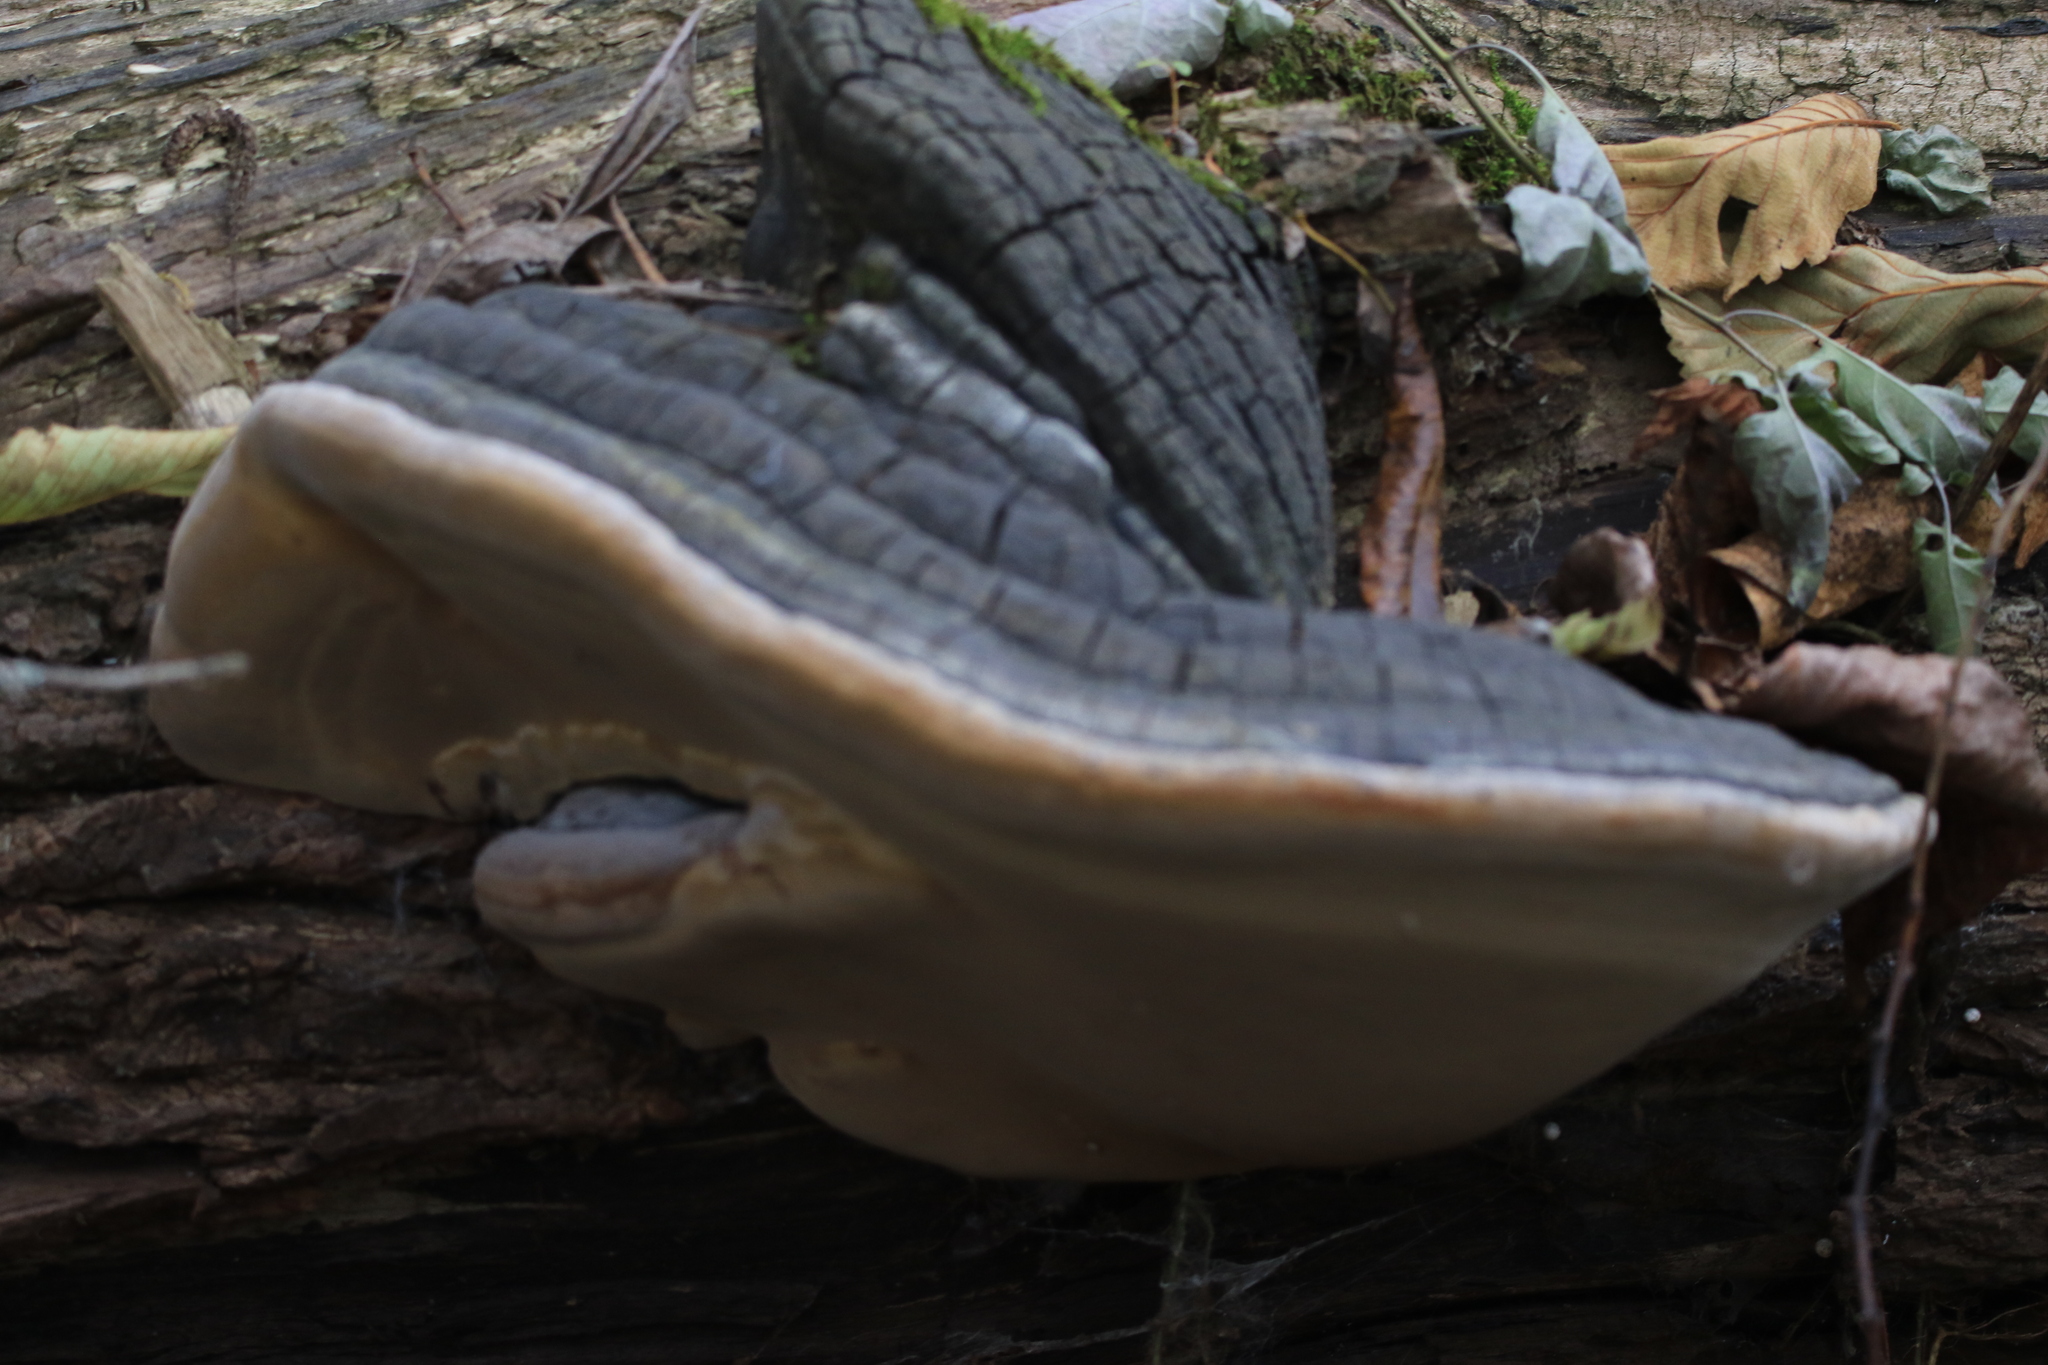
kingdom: Fungi
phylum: Basidiomycota
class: Agaricomycetes
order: Hymenochaetales
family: Hymenochaetaceae
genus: Phellinus
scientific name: Phellinus igniarius
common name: Willow bracket
